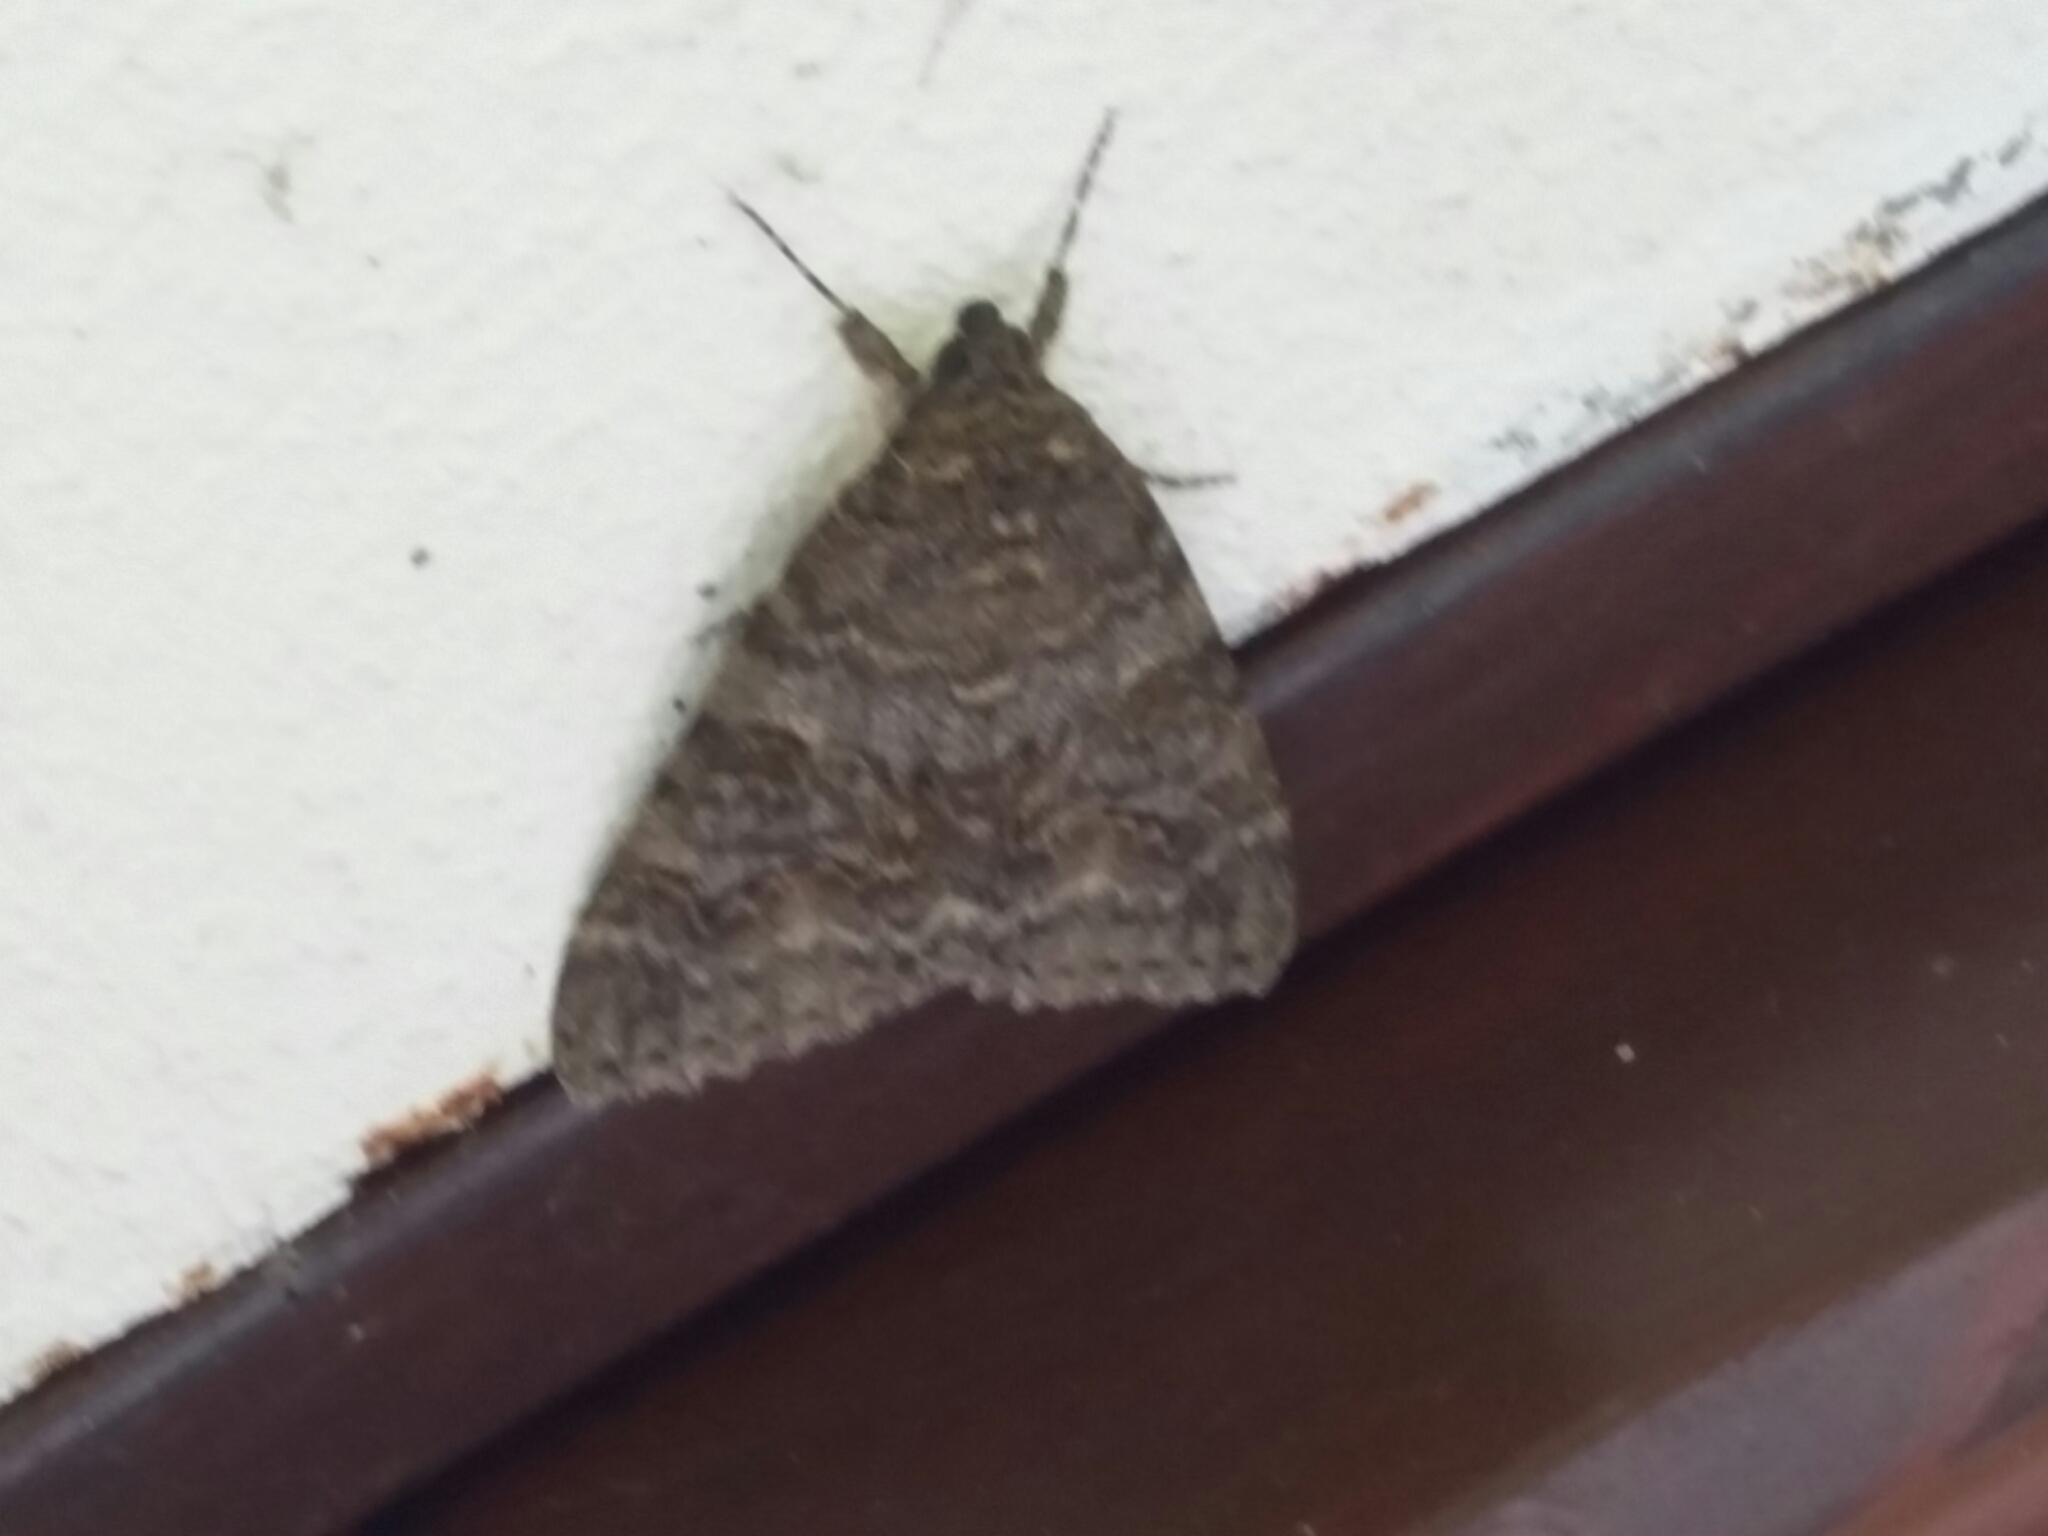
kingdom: Animalia
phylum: Arthropoda
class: Insecta
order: Lepidoptera
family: Erebidae
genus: Catocala
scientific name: Catocala nupta
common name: Red underwing
